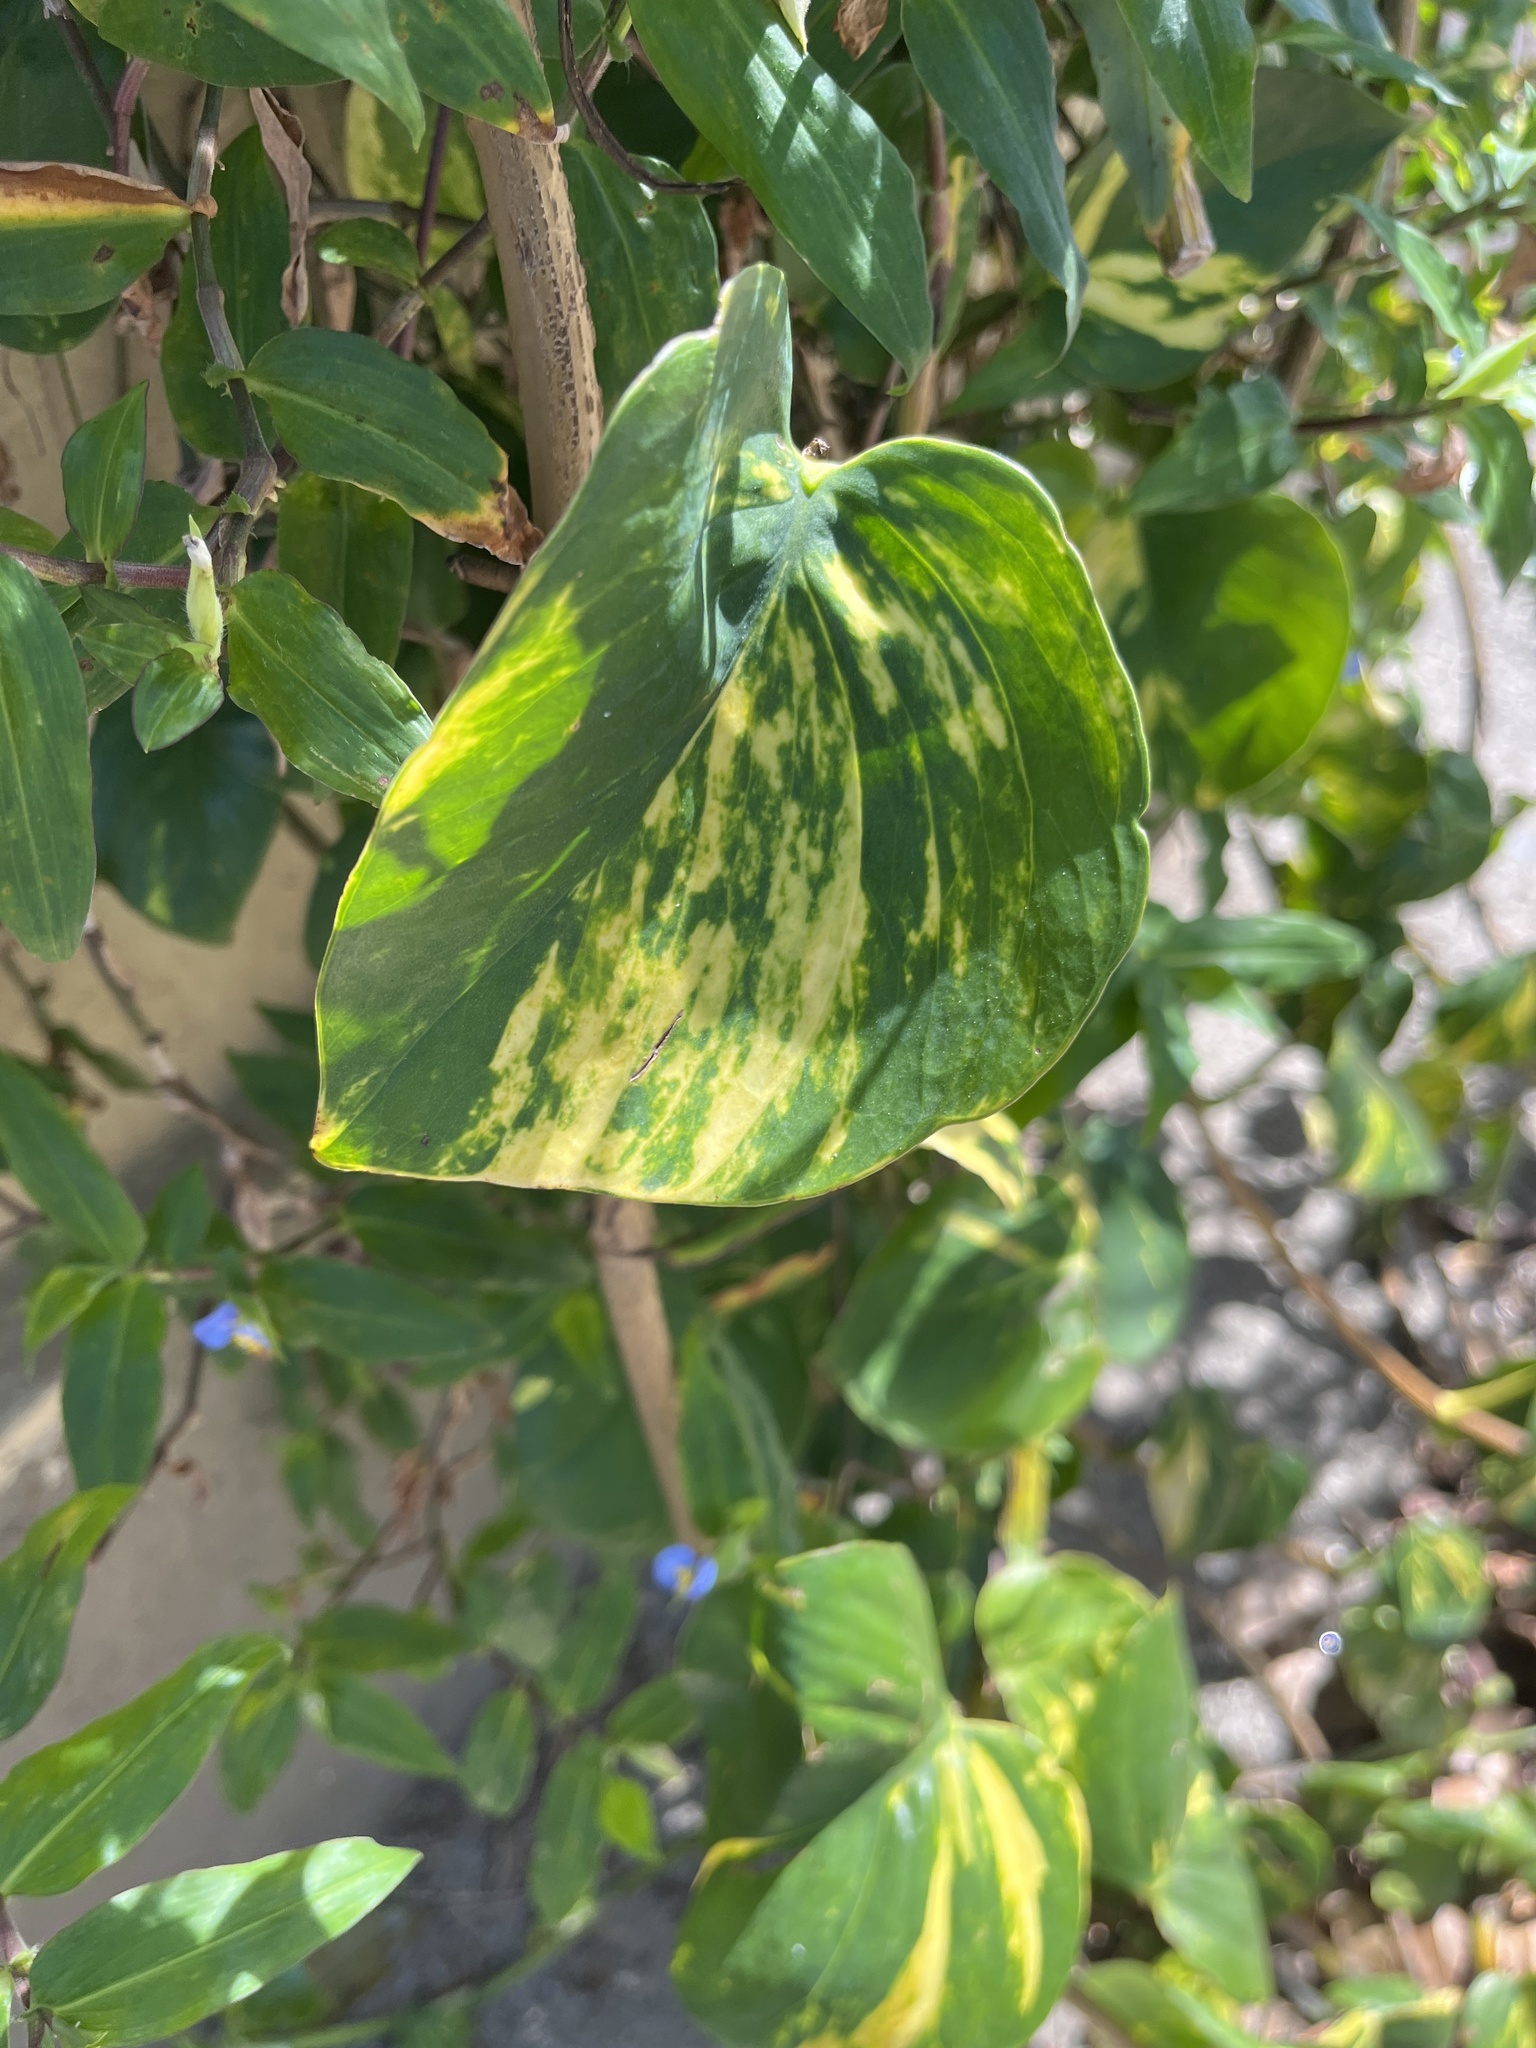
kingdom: Plantae
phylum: Tracheophyta
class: Liliopsida
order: Alismatales
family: Araceae
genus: Epipremnum
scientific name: Epipremnum aureum
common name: Golden hunter's-robe
